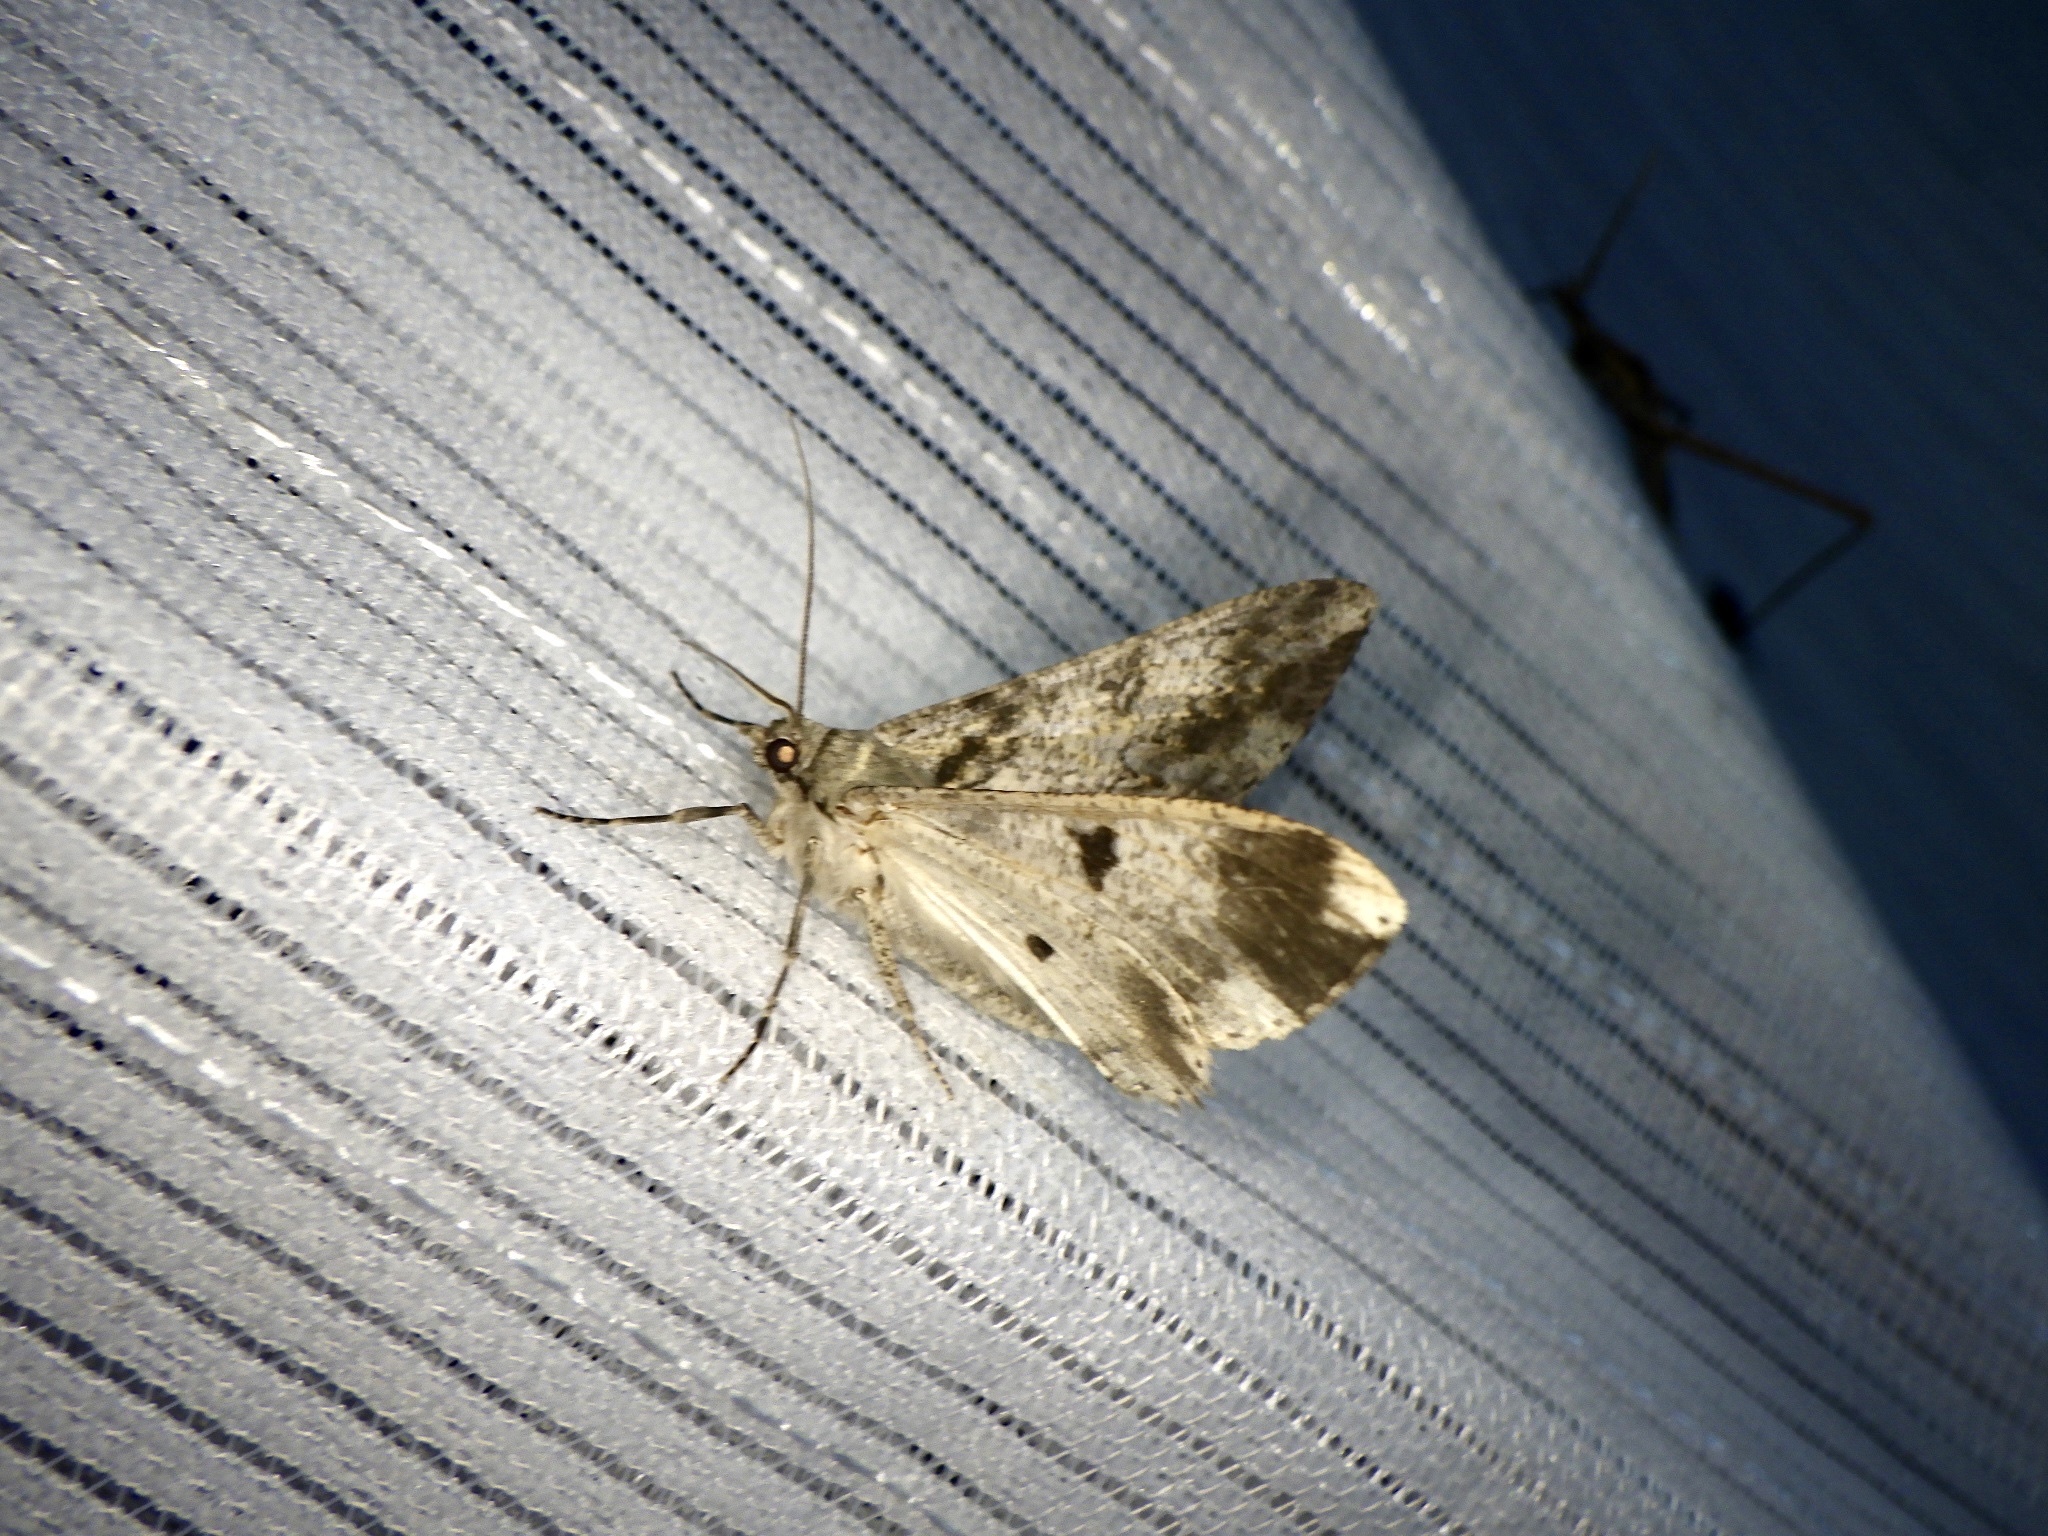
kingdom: Animalia
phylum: Arthropoda
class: Insecta
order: Lepidoptera
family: Geometridae
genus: Ascotis
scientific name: Ascotis selenaria
